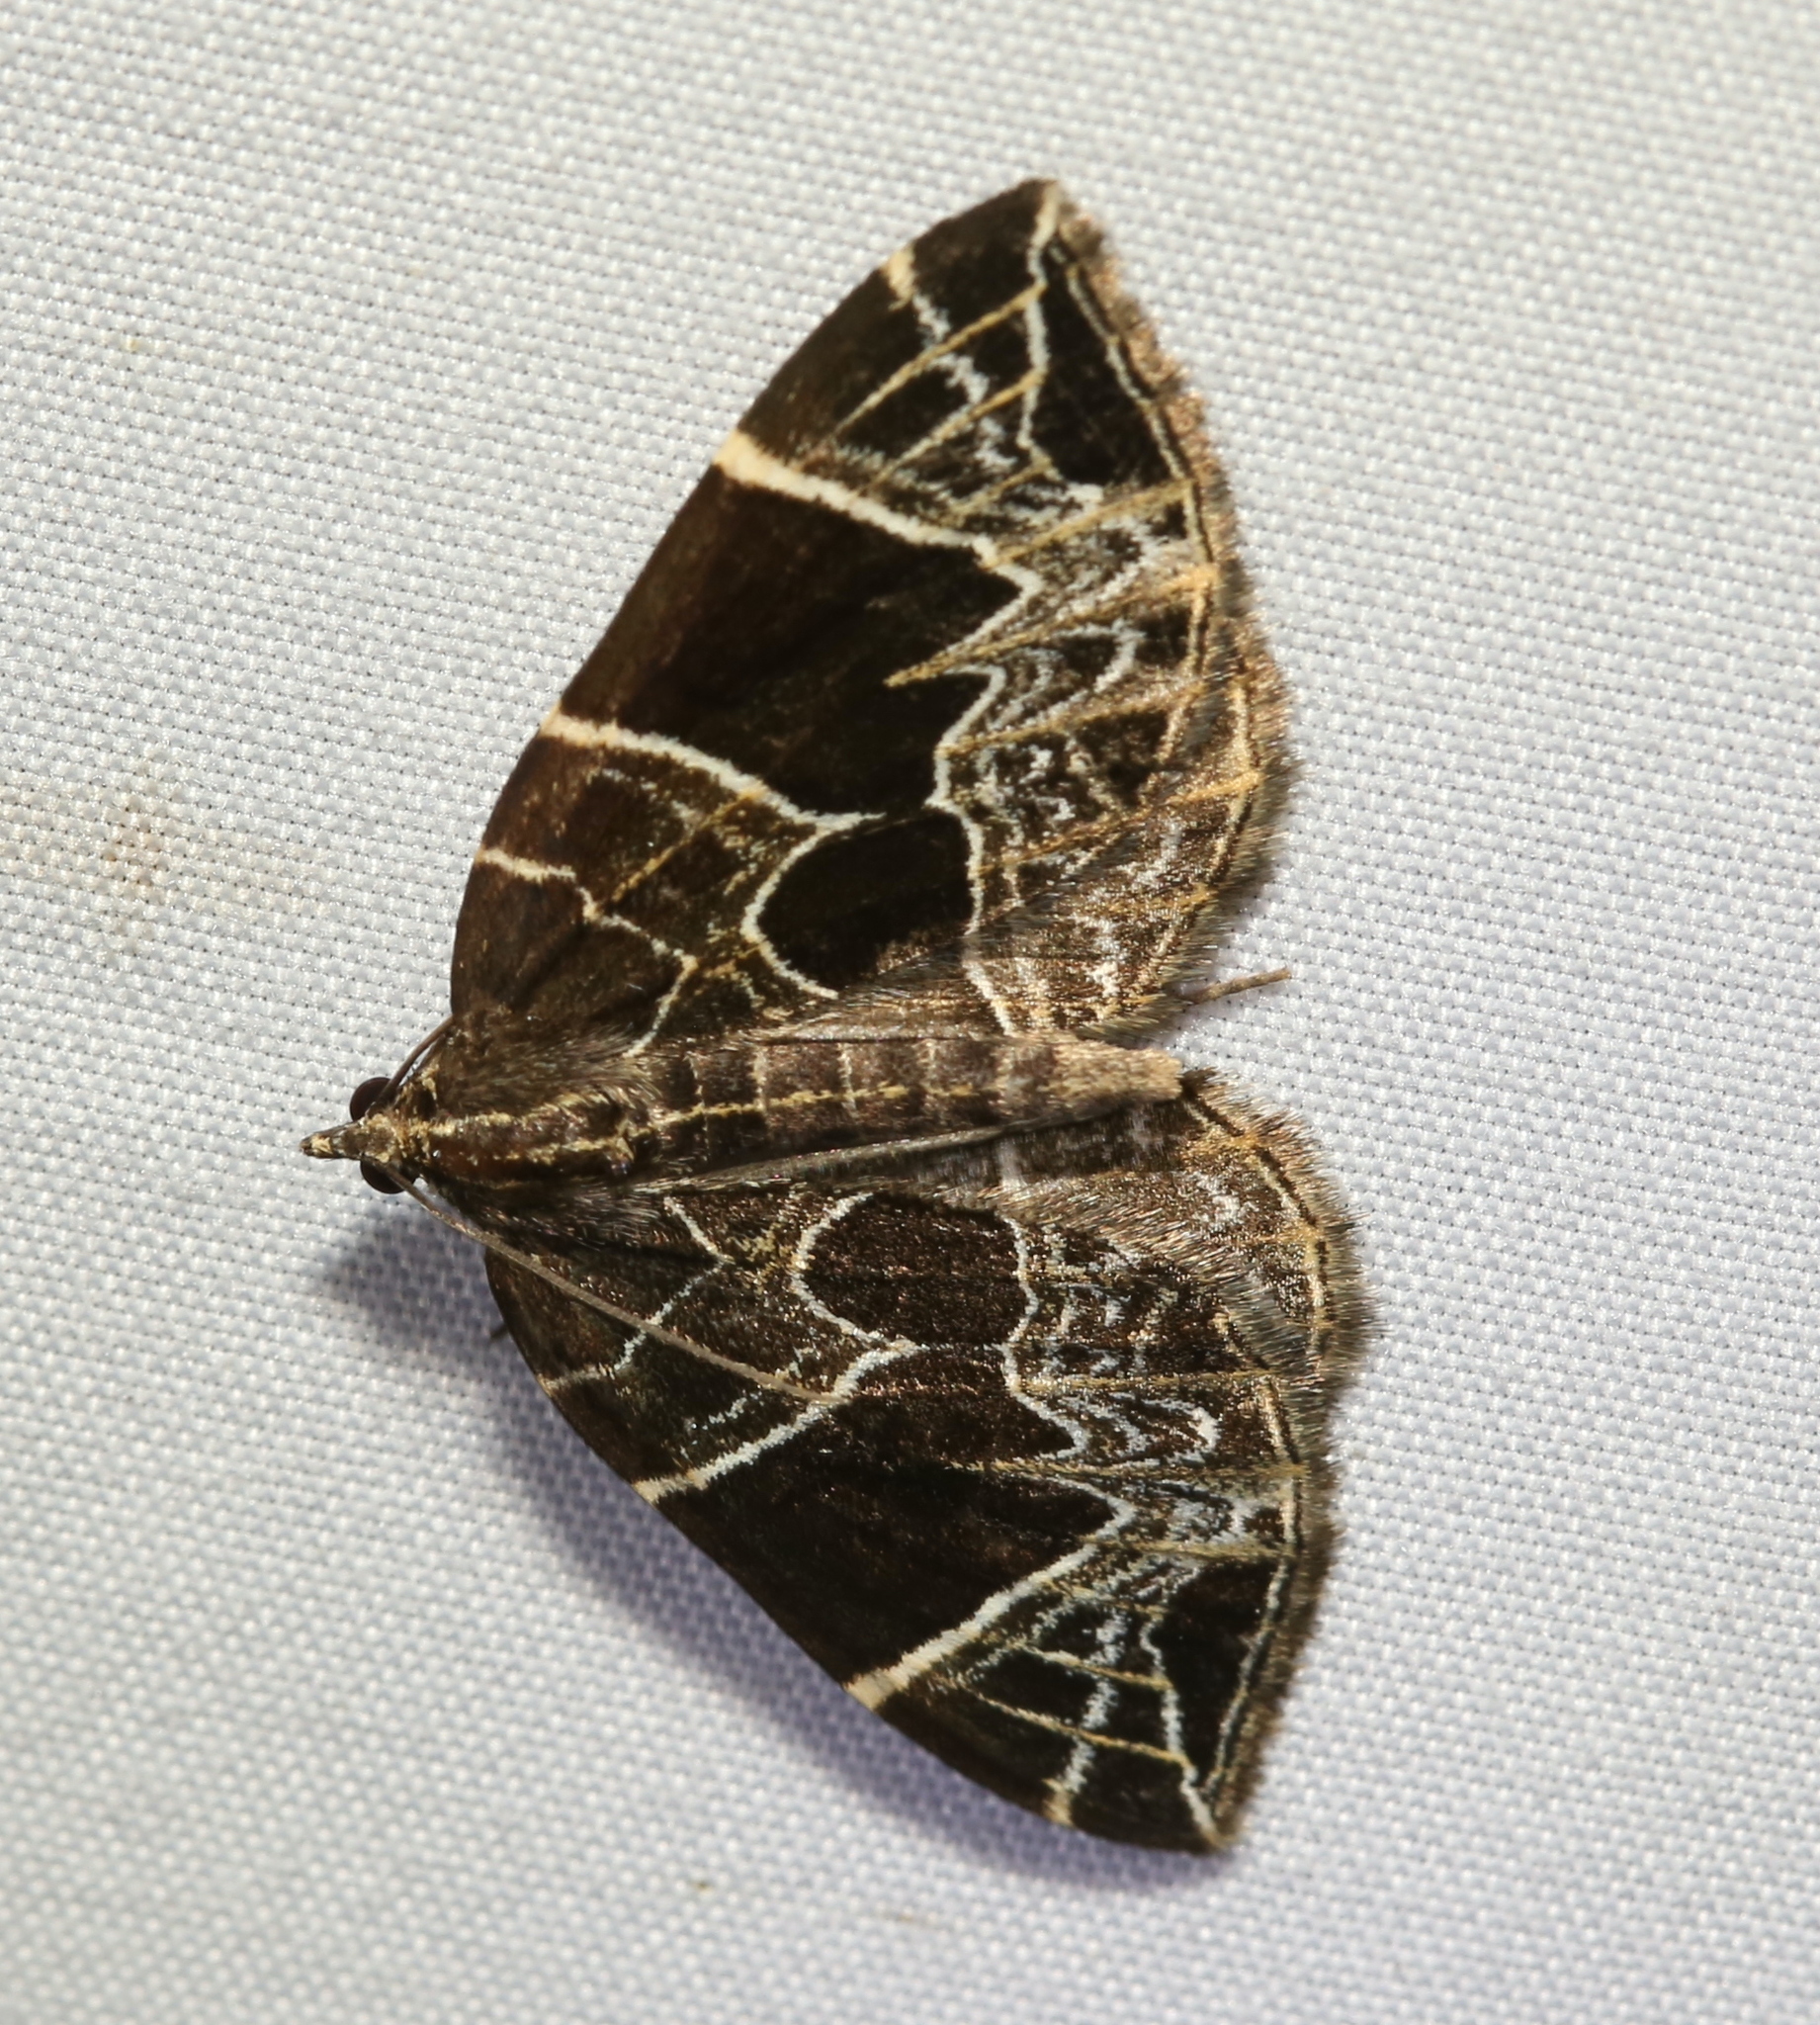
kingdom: Animalia
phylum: Arthropoda
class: Insecta
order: Lepidoptera
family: Geometridae
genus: Ecliptopera
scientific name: Ecliptopera atricolorata
